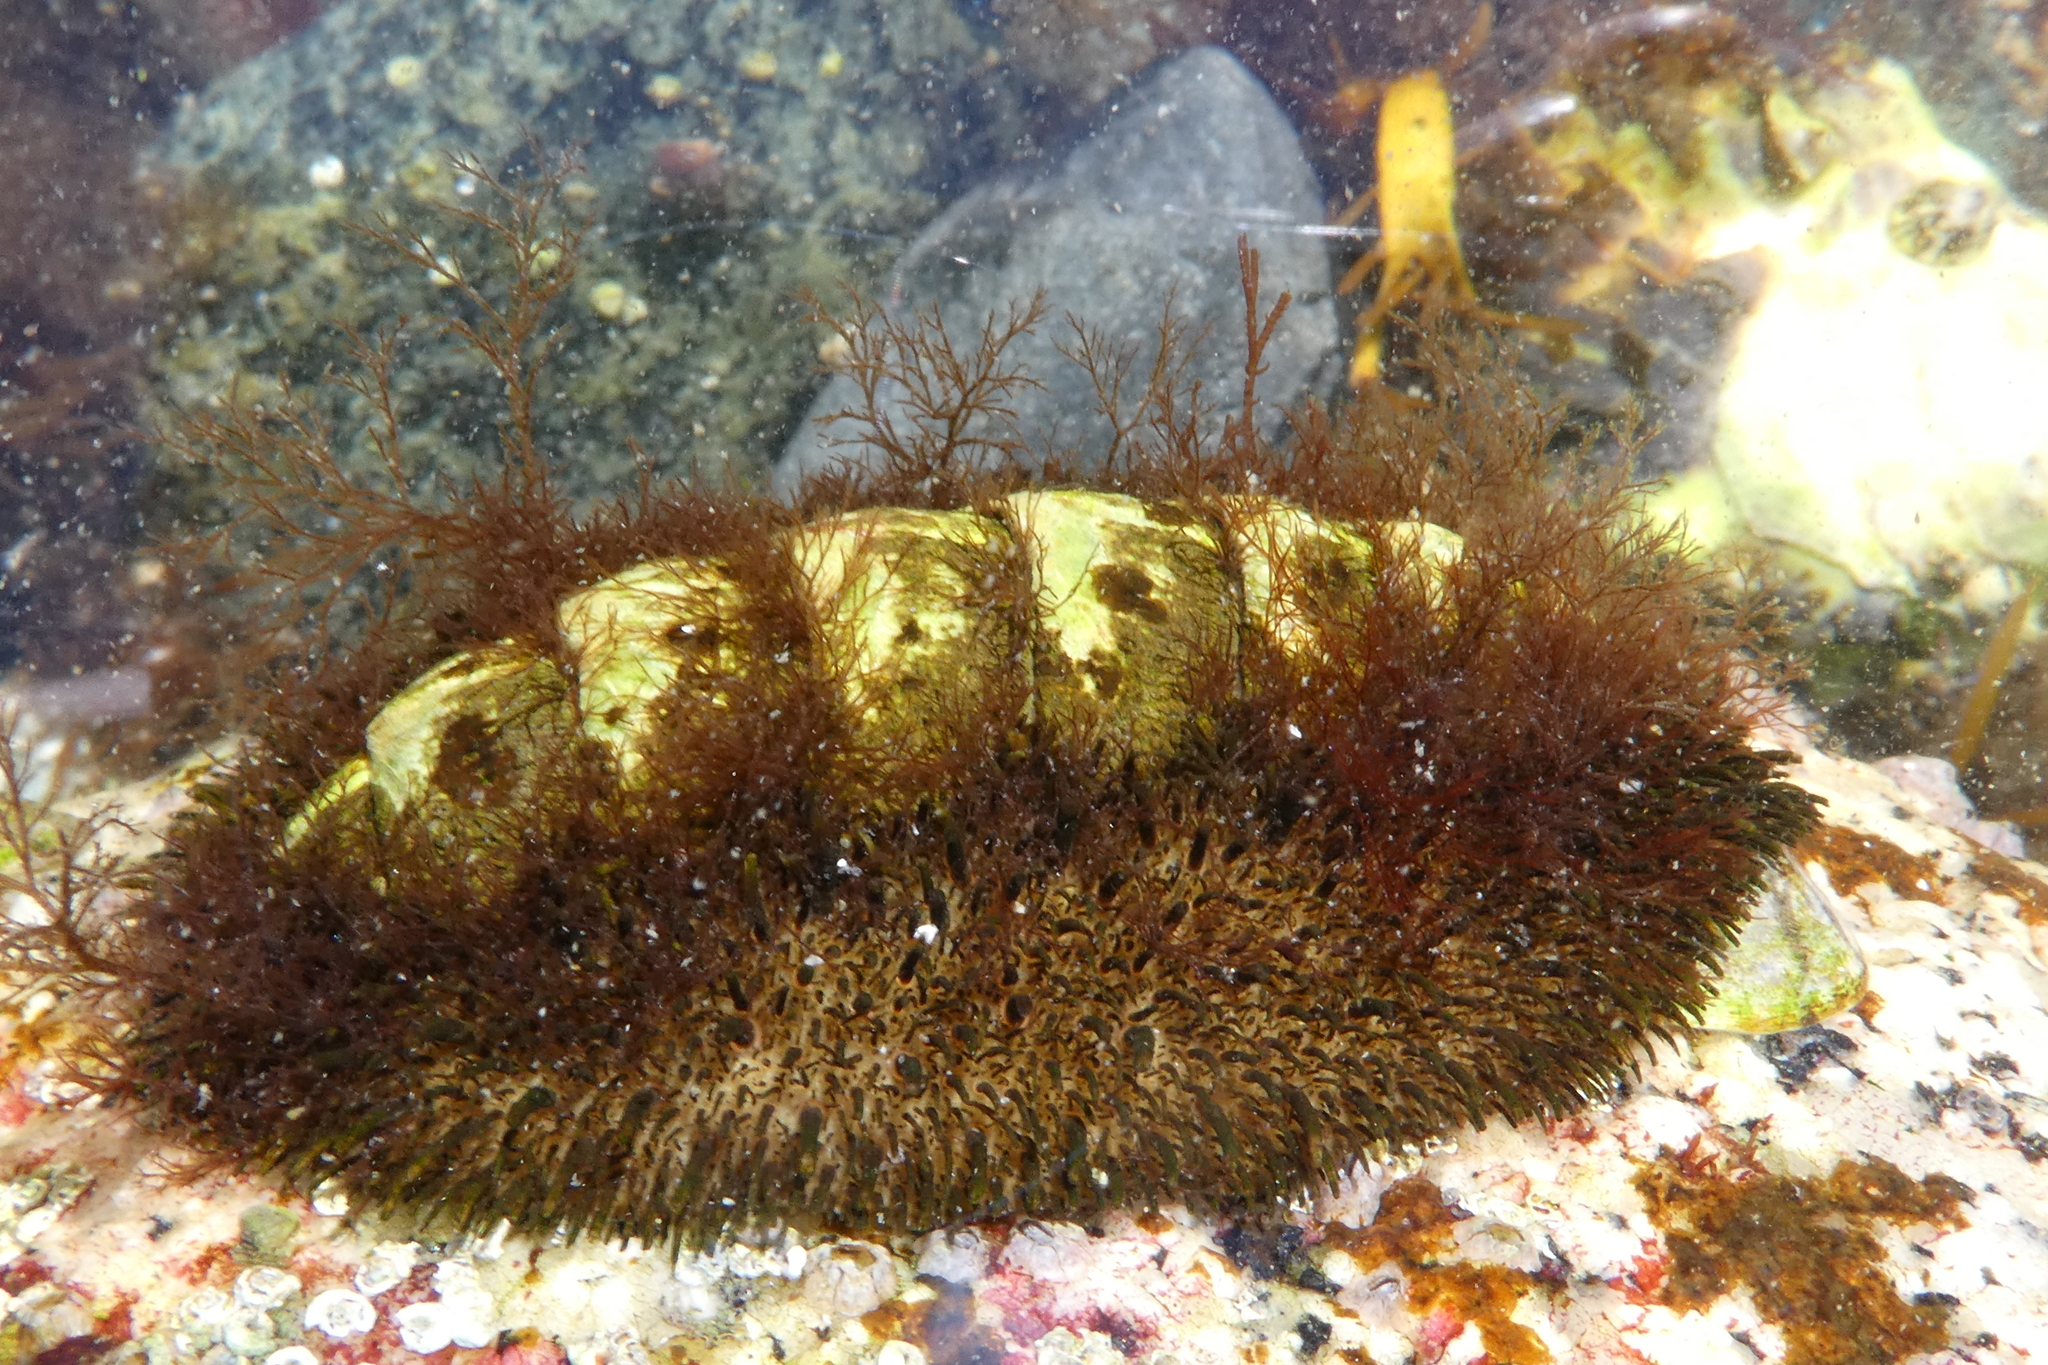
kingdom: Animalia
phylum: Mollusca
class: Polyplacophora
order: Chitonida
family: Mopaliidae
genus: Mopalia
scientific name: Mopalia muscosa
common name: Mossy chiton
